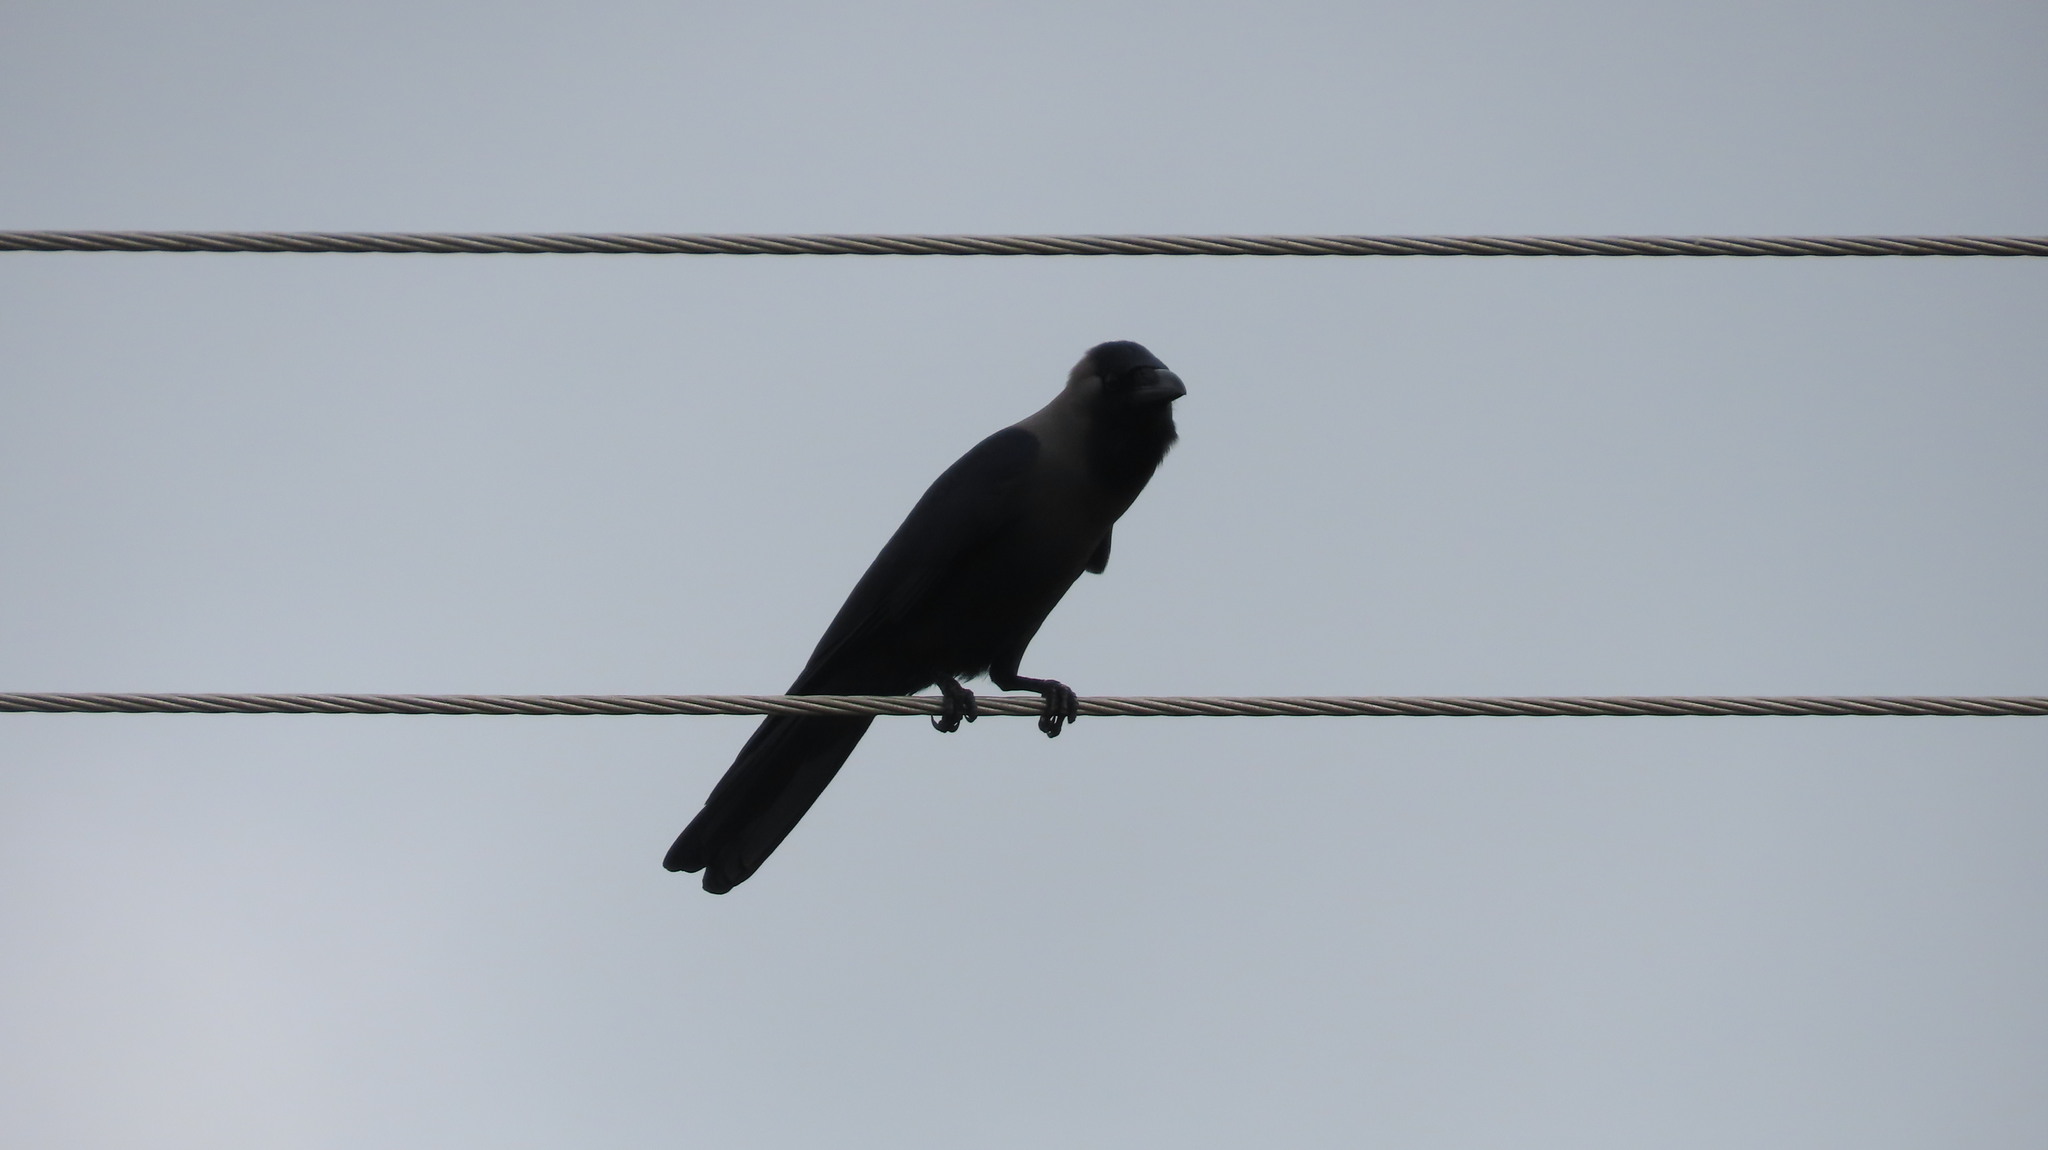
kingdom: Animalia
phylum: Chordata
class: Aves
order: Passeriformes
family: Corvidae
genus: Corvus
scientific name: Corvus splendens
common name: House crow
